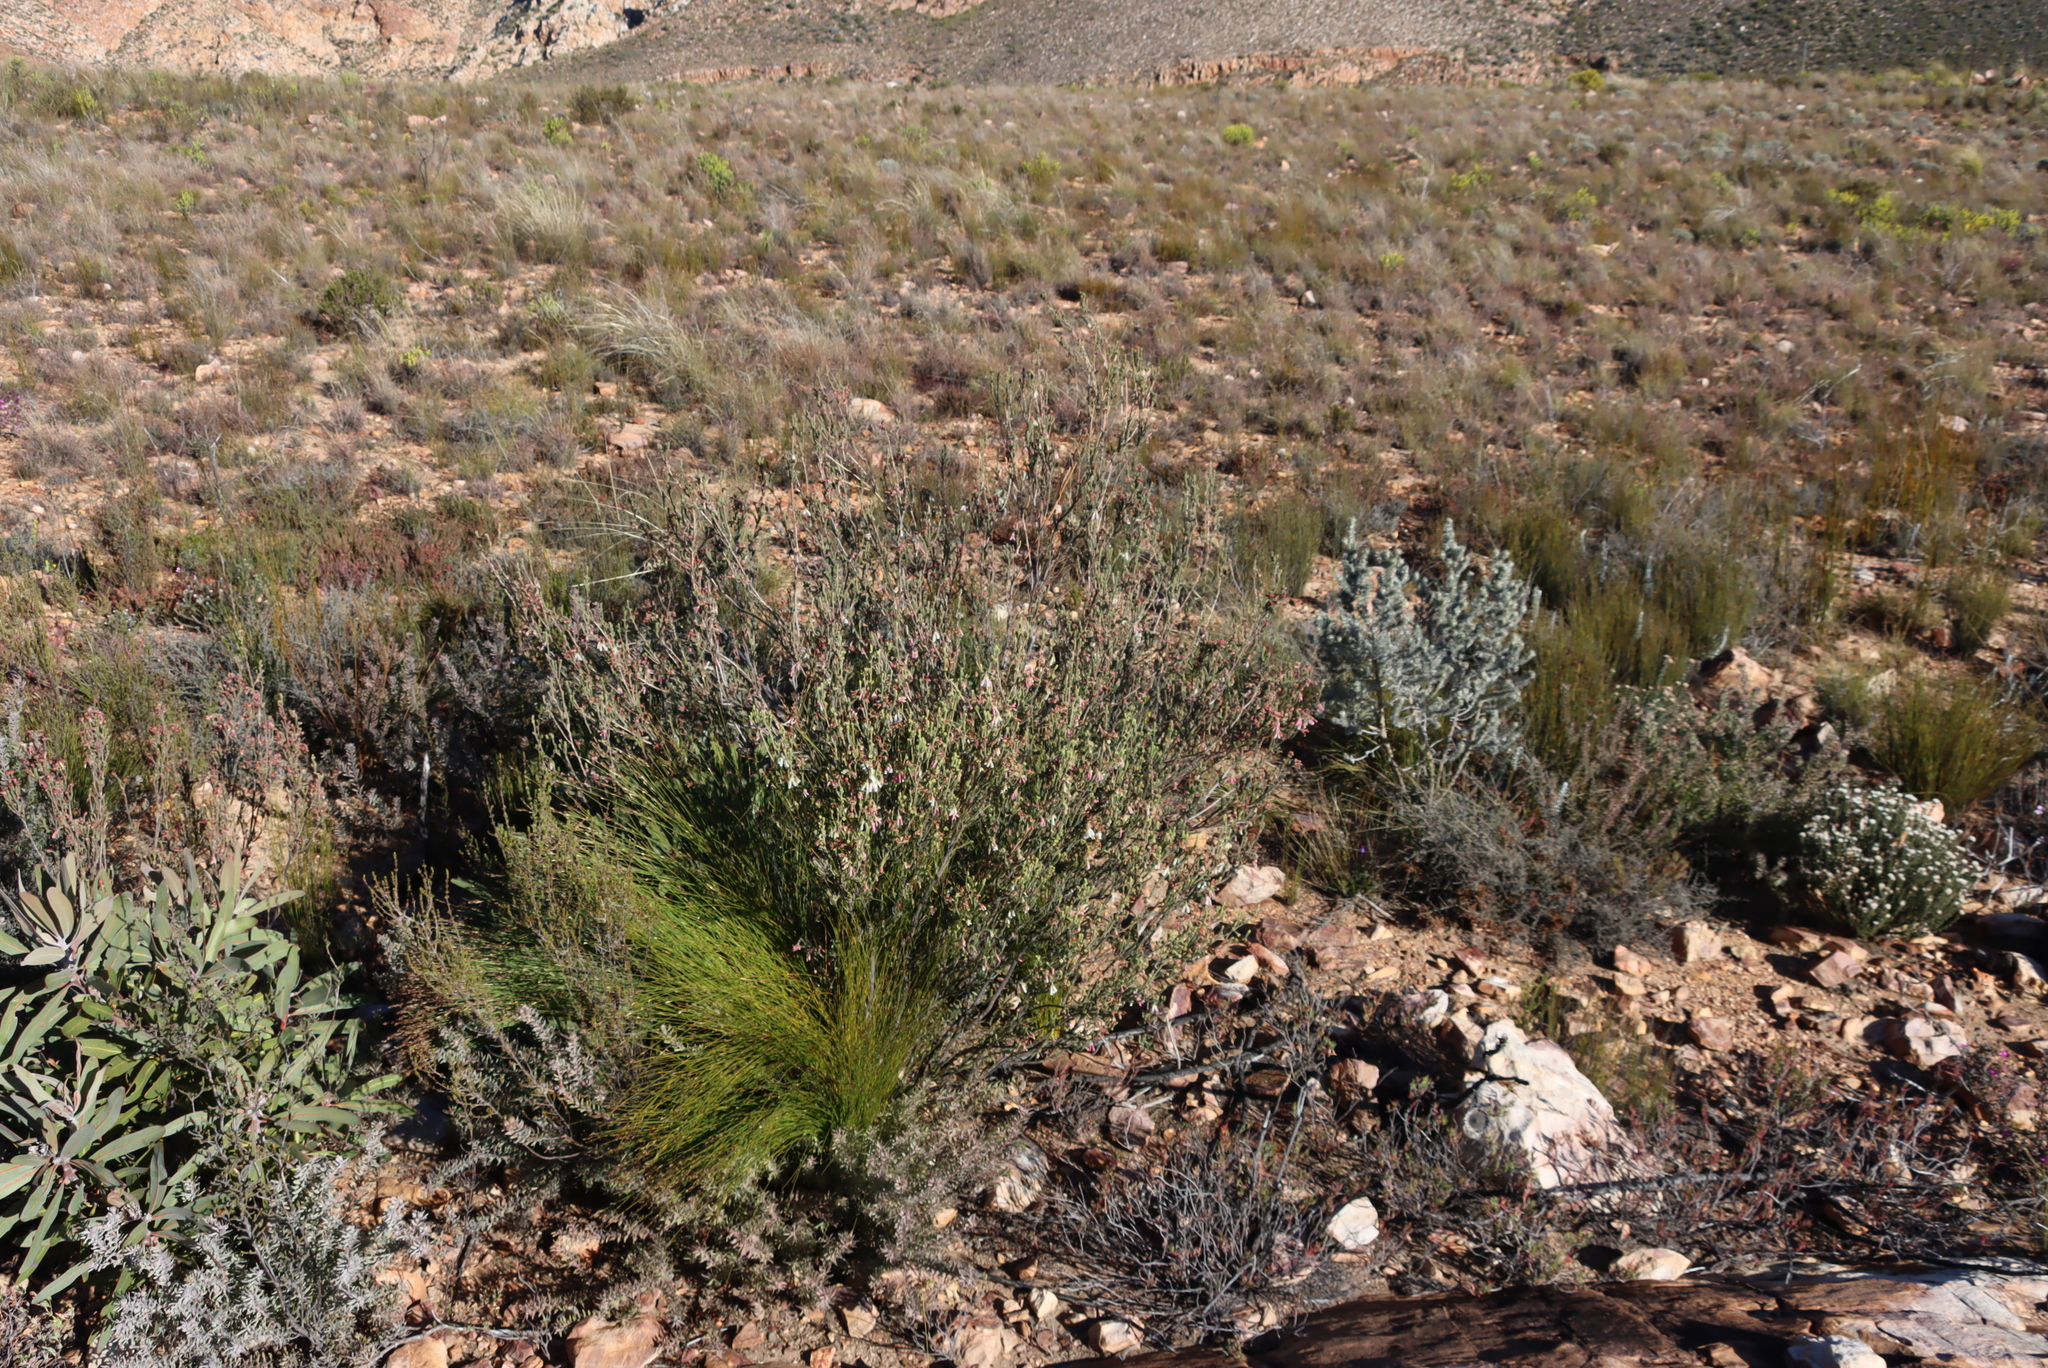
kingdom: Plantae
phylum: Tracheophyta
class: Magnoliopsida
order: Ericales
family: Ericaceae
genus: Erica
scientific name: Erica pectinifolia
